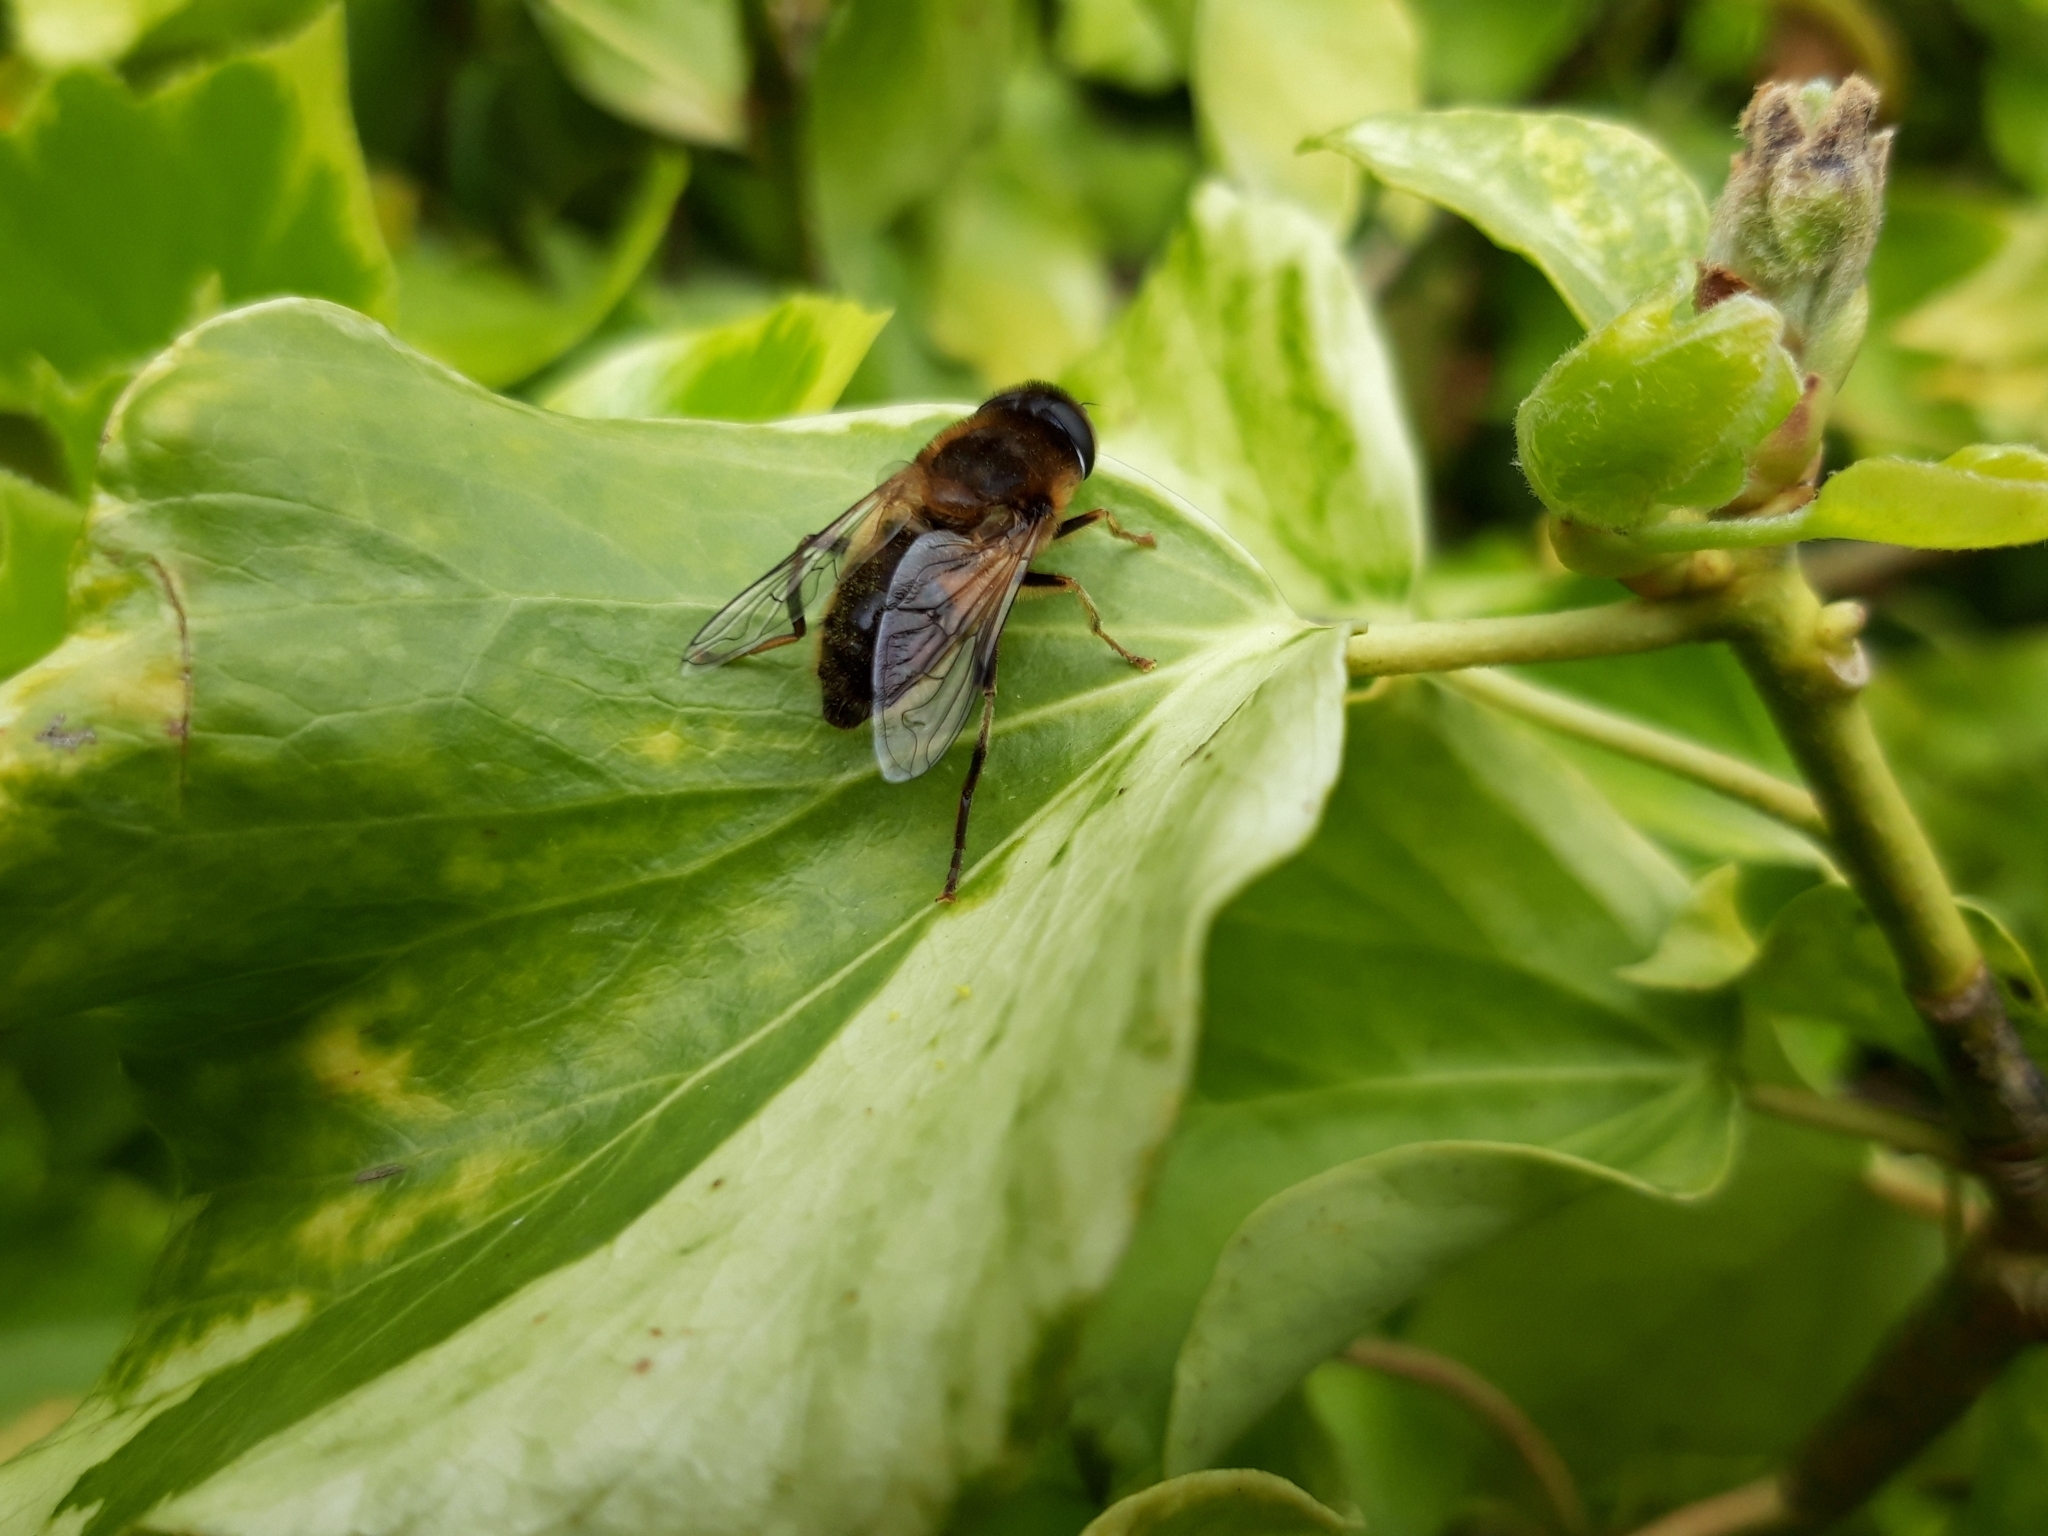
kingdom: Animalia
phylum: Arthropoda
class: Insecta
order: Diptera
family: Syrphidae
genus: Eristalis
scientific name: Eristalis pertinax
